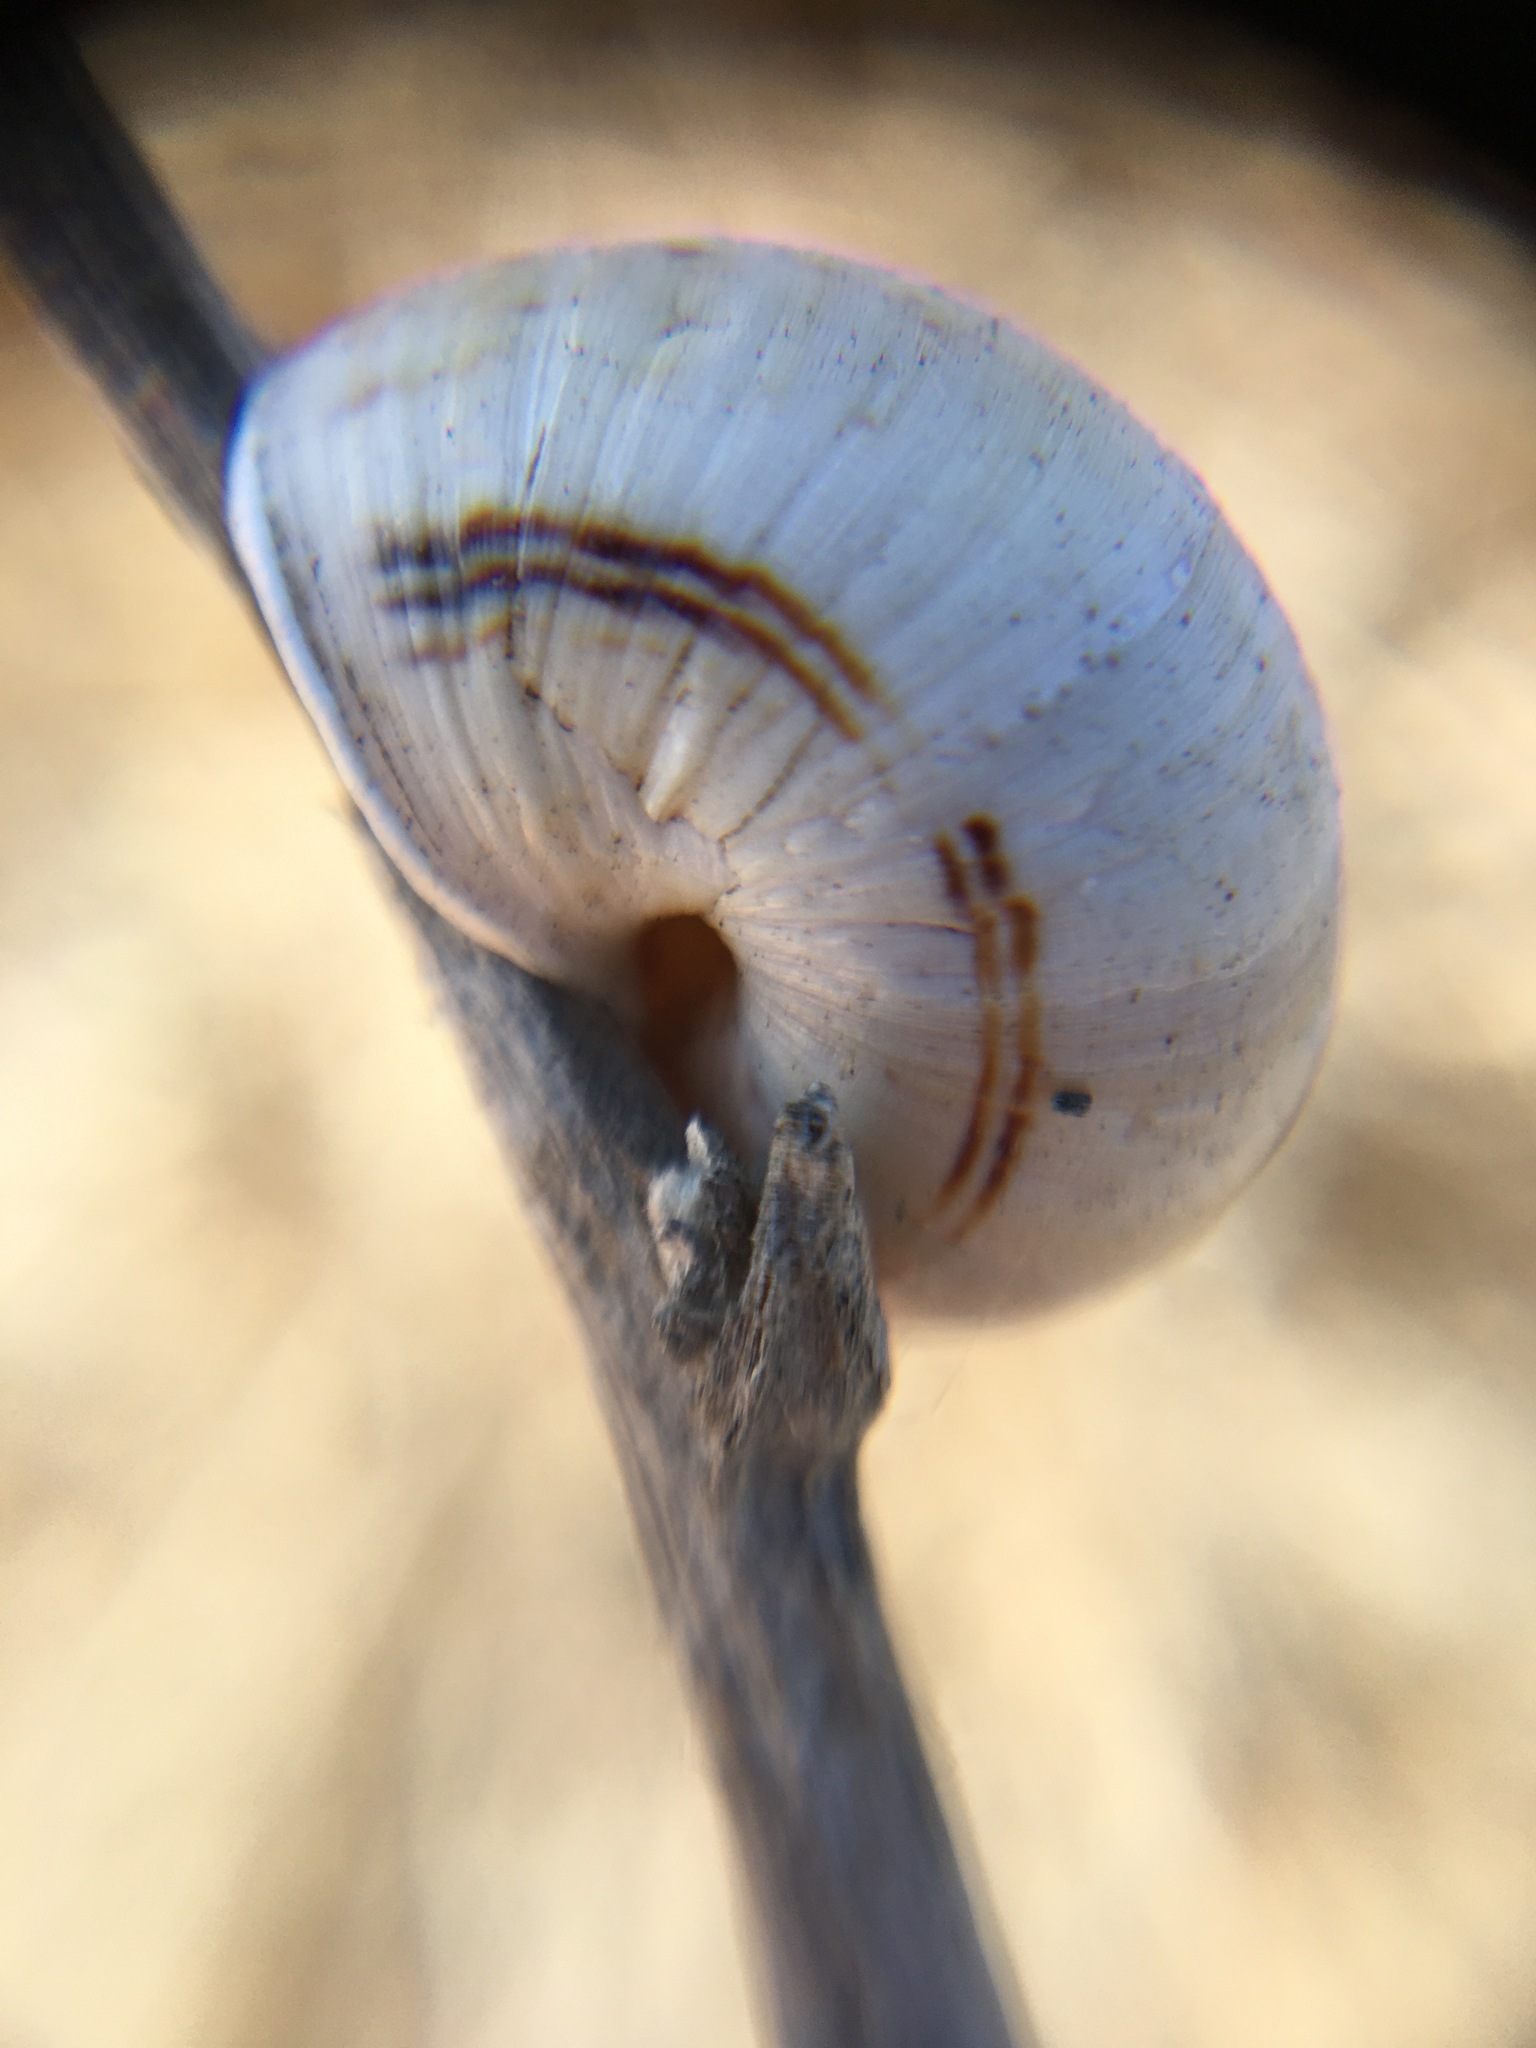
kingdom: Animalia
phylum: Mollusca
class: Gastropoda
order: Stylommatophora
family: Helicidae
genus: Theba
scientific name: Theba pisana
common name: White snail
